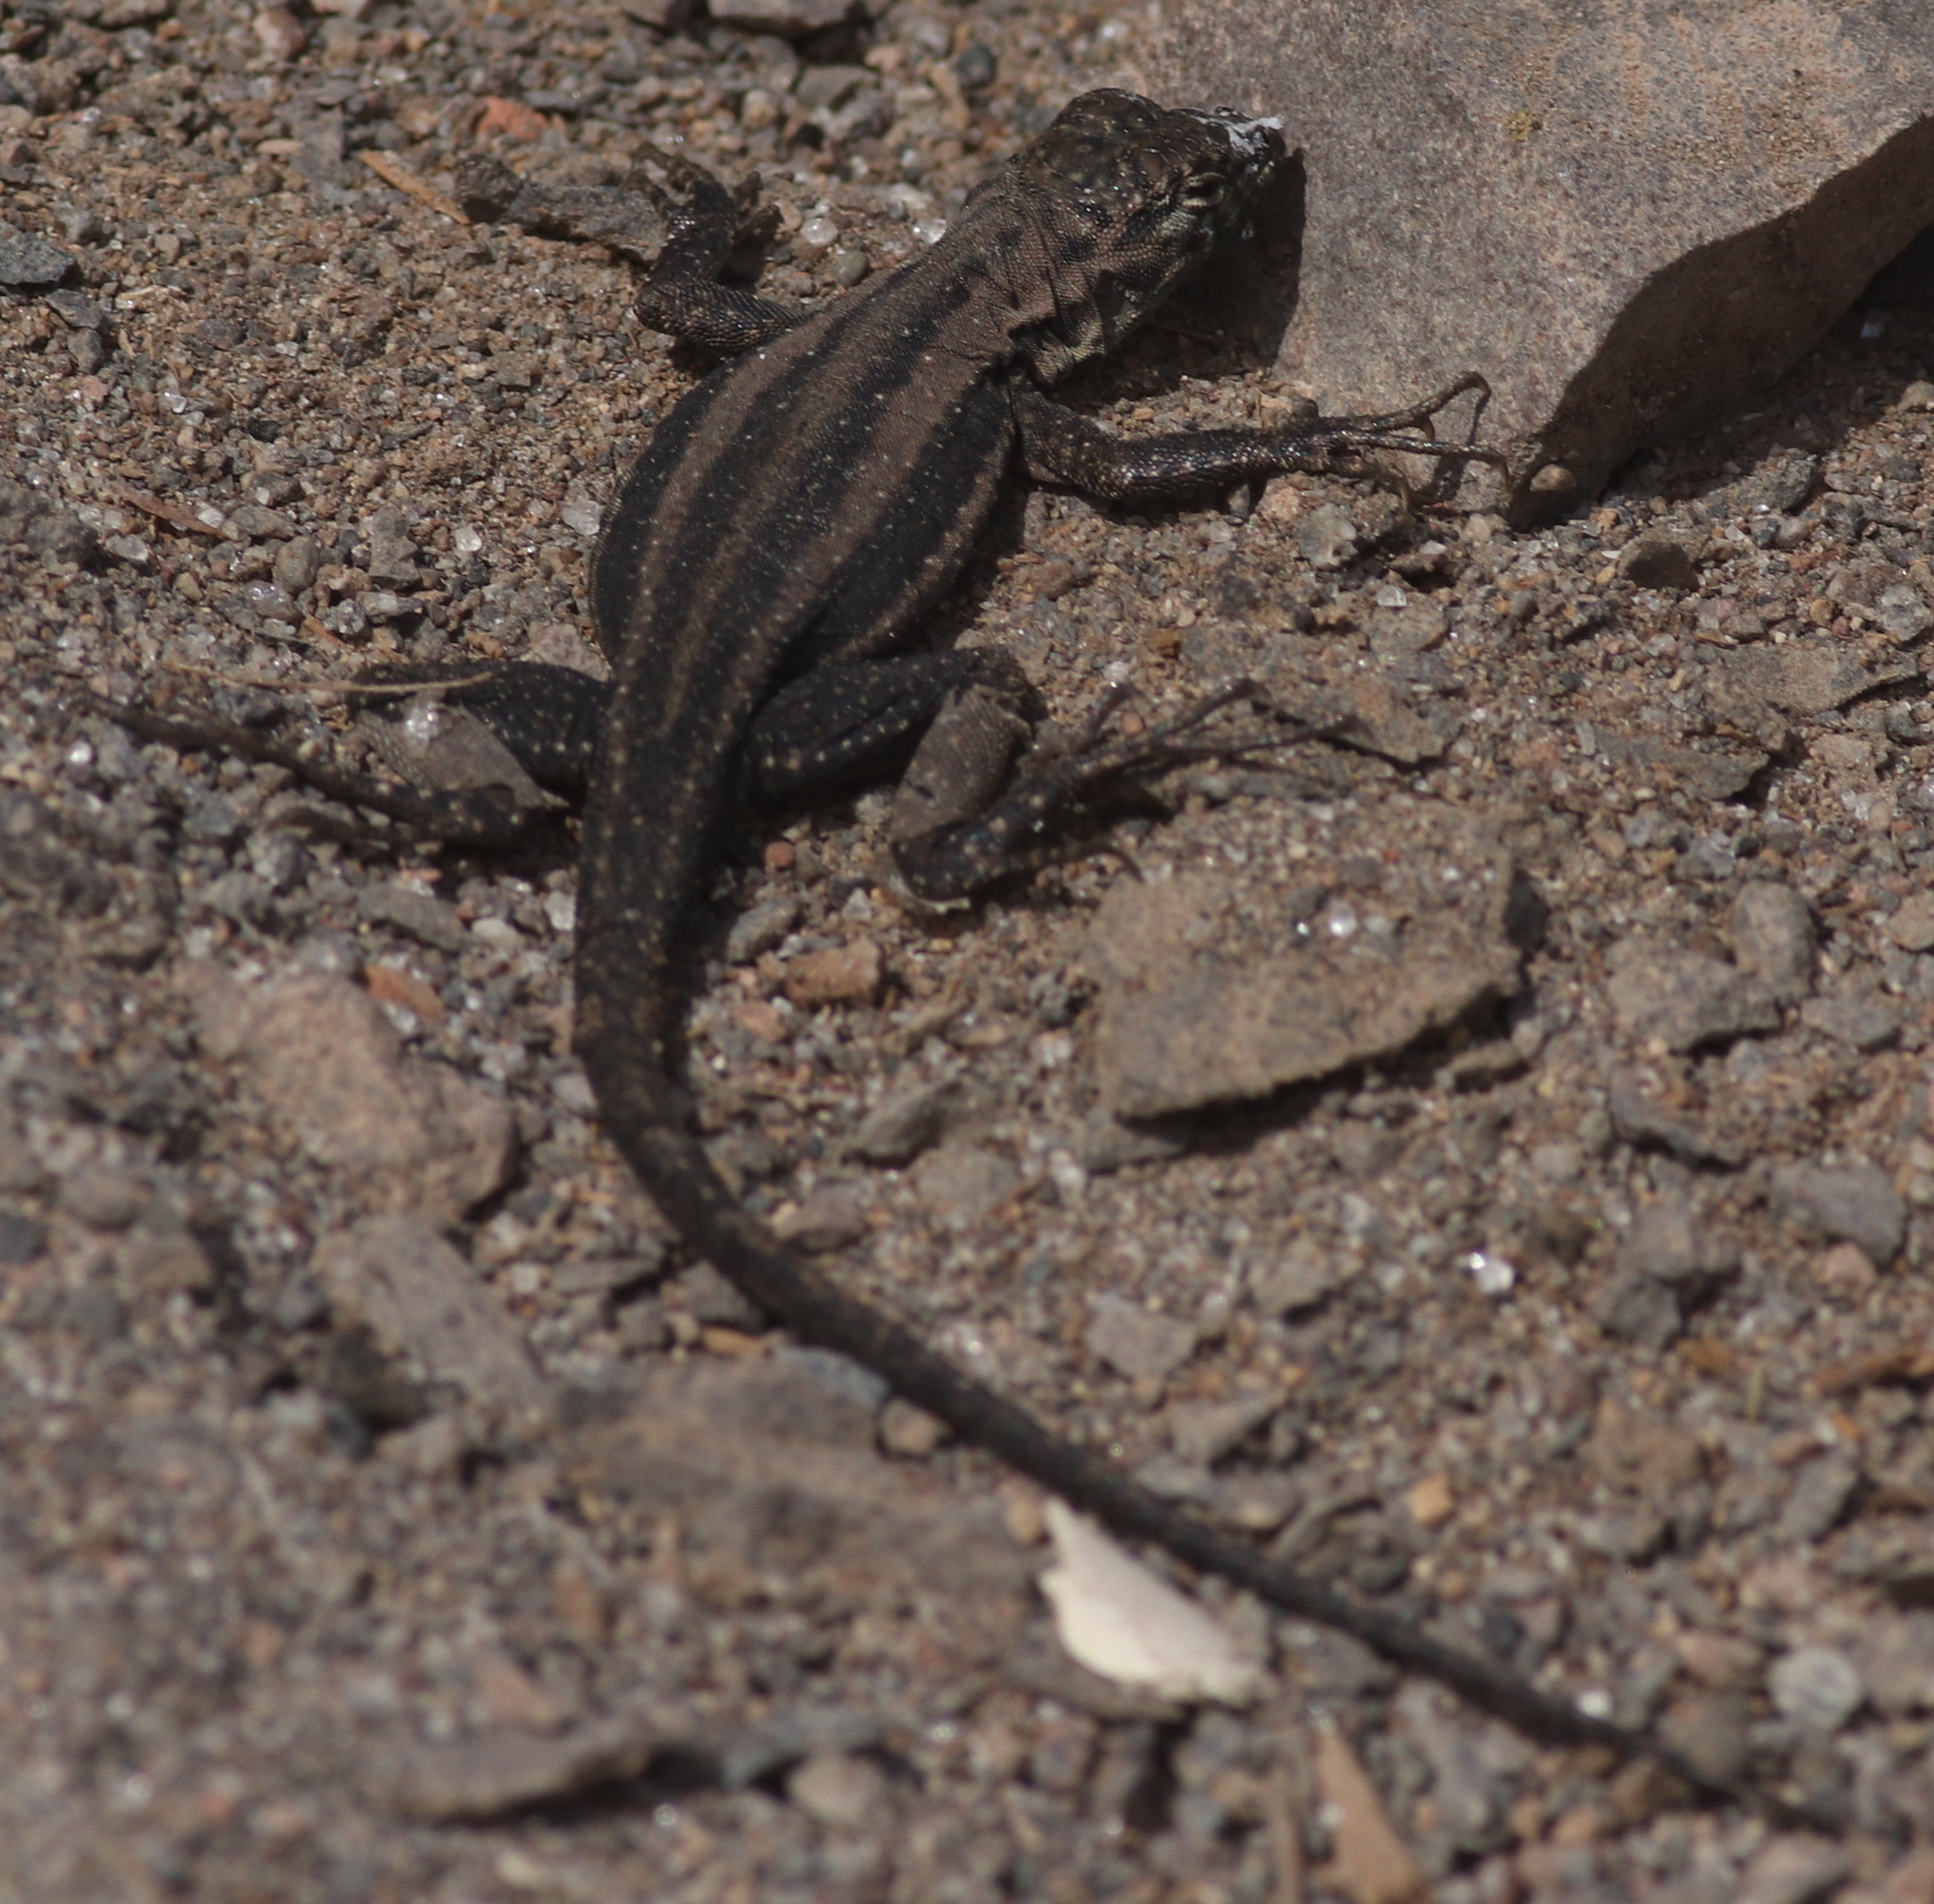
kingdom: Animalia
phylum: Chordata
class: Squamata
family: Tropiduridae
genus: Microlophus
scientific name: Microlophus quadrivittatus
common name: Four-banded pacific iguana
